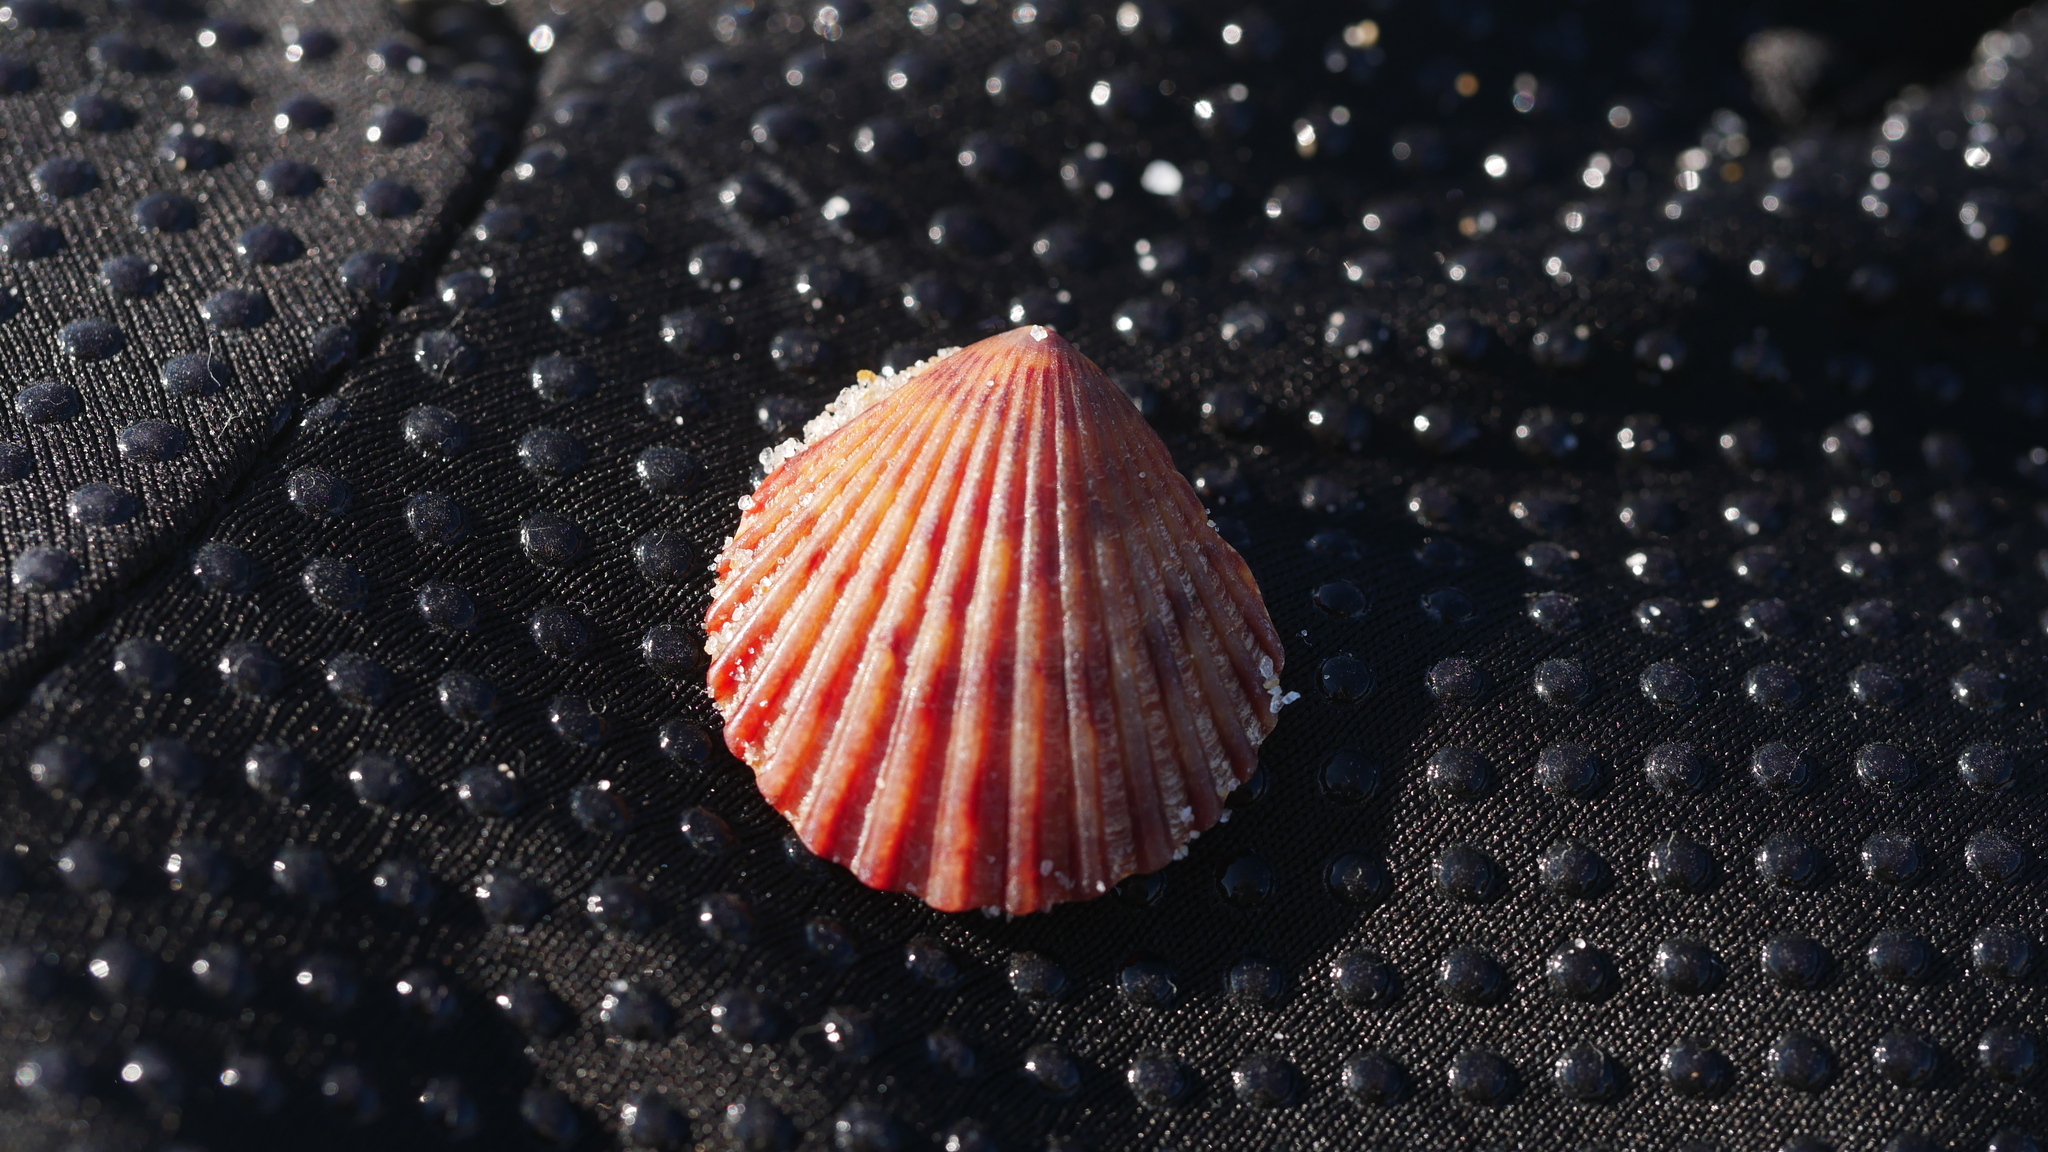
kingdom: Animalia
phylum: Mollusca
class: Bivalvia
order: Pectinida
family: Pectinidae
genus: Argopecten
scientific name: Argopecten irradians
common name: Atlantic bay scallop
